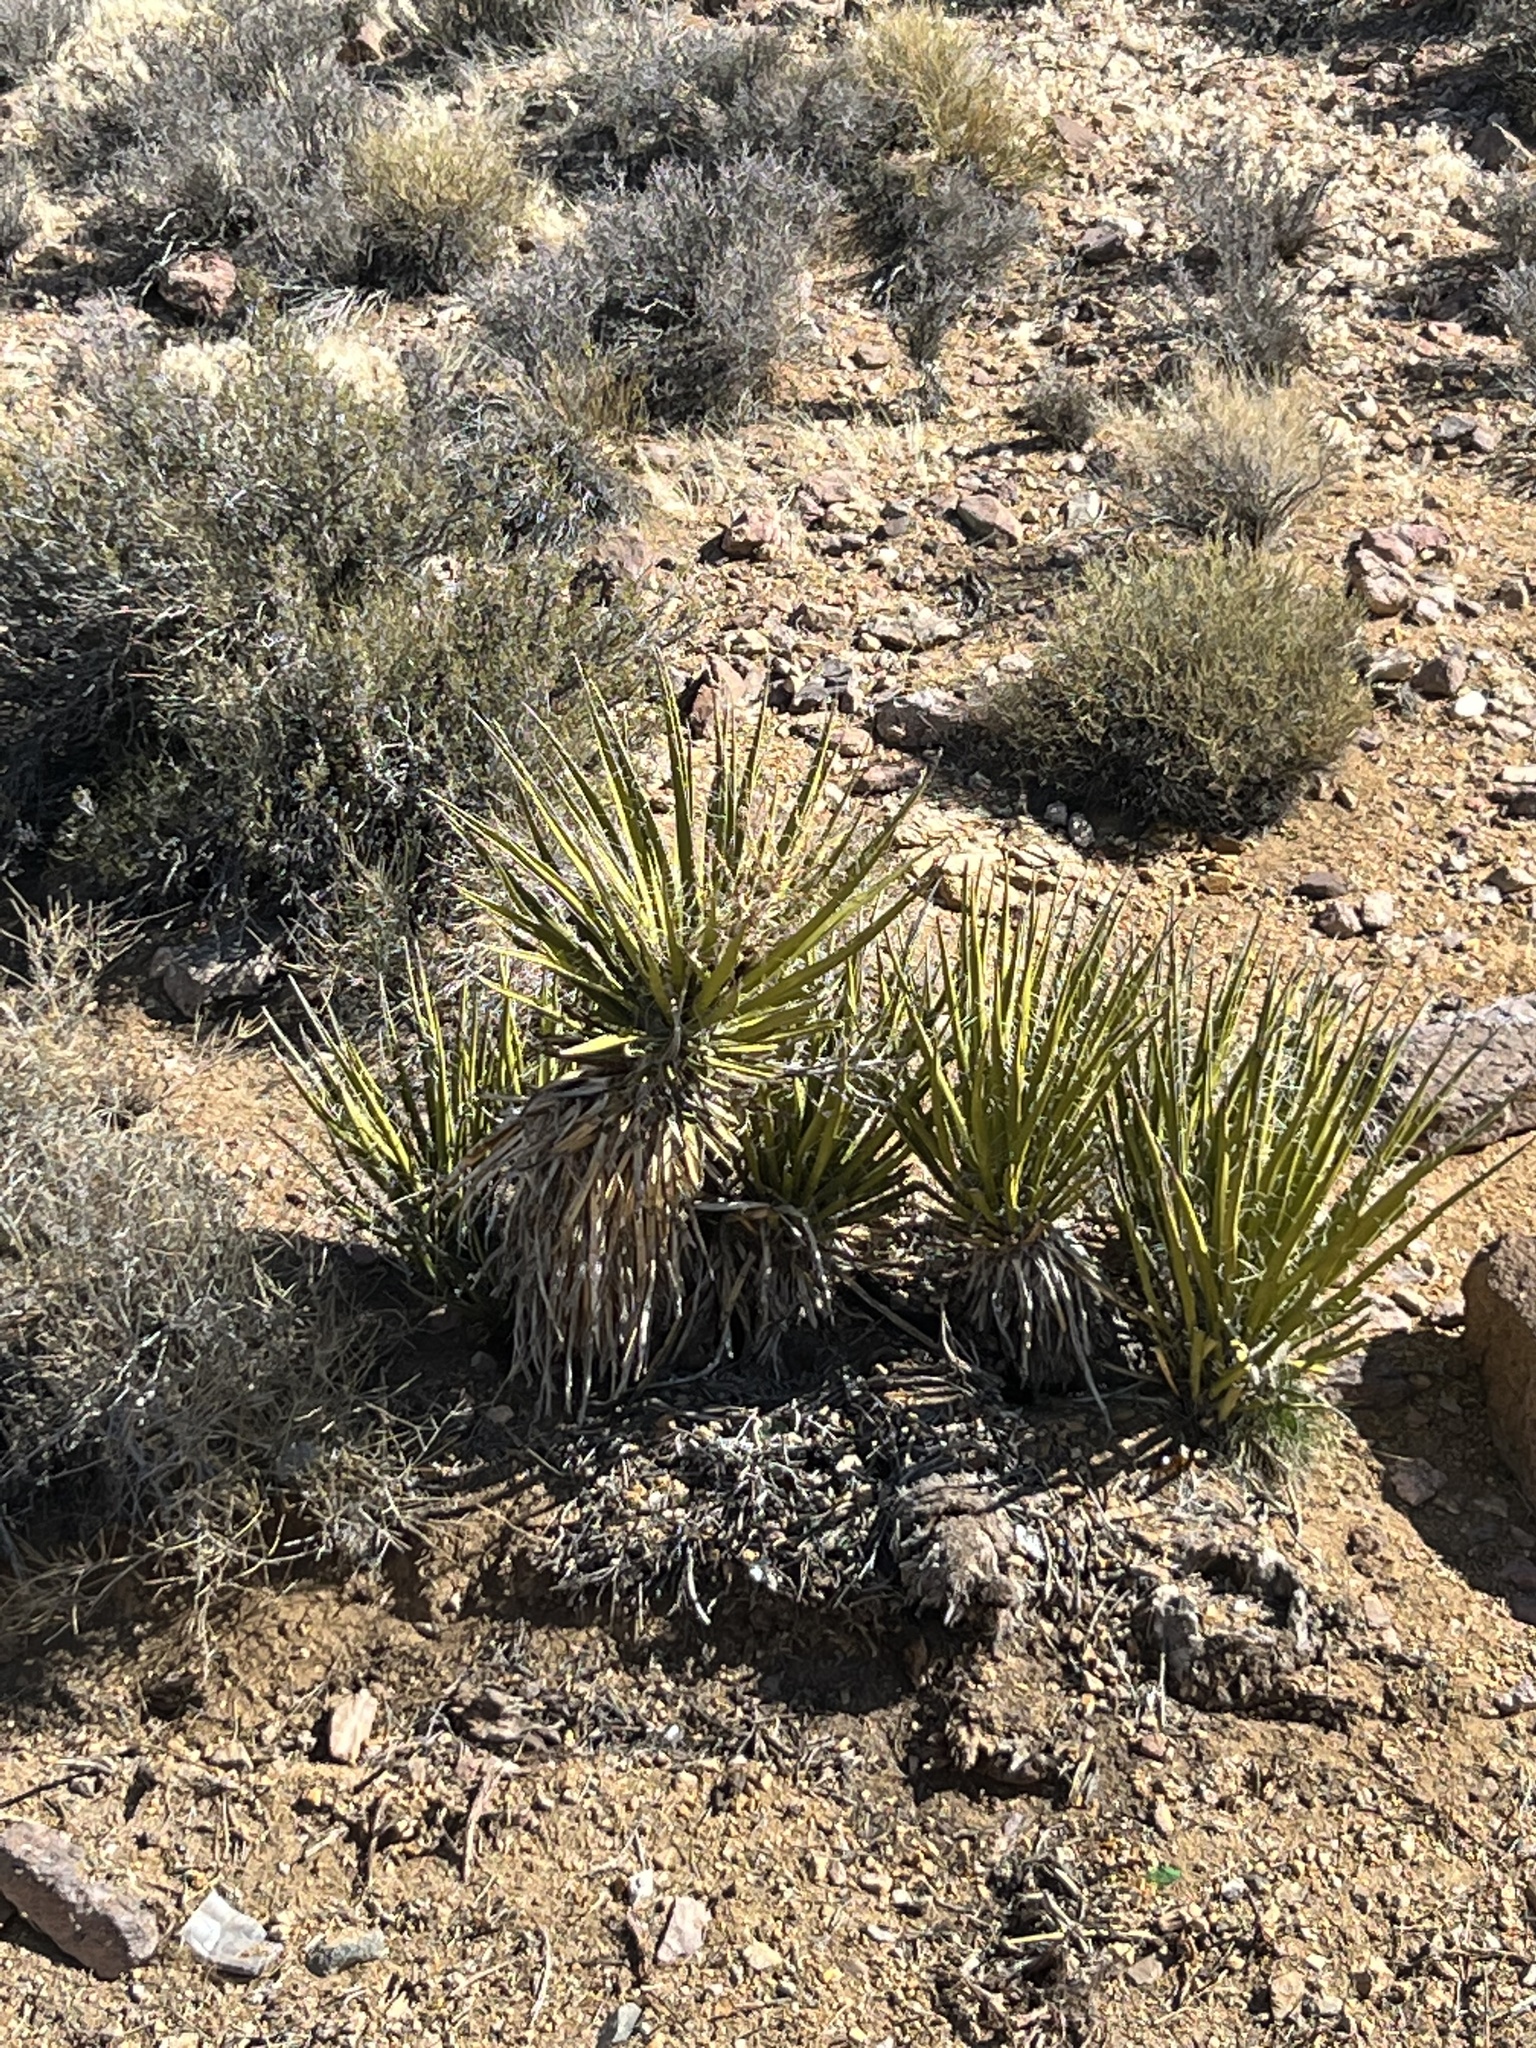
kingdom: Plantae
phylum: Tracheophyta
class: Liliopsida
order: Asparagales
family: Asparagaceae
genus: Yucca
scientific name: Yucca schidigera
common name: Mojave yucca
